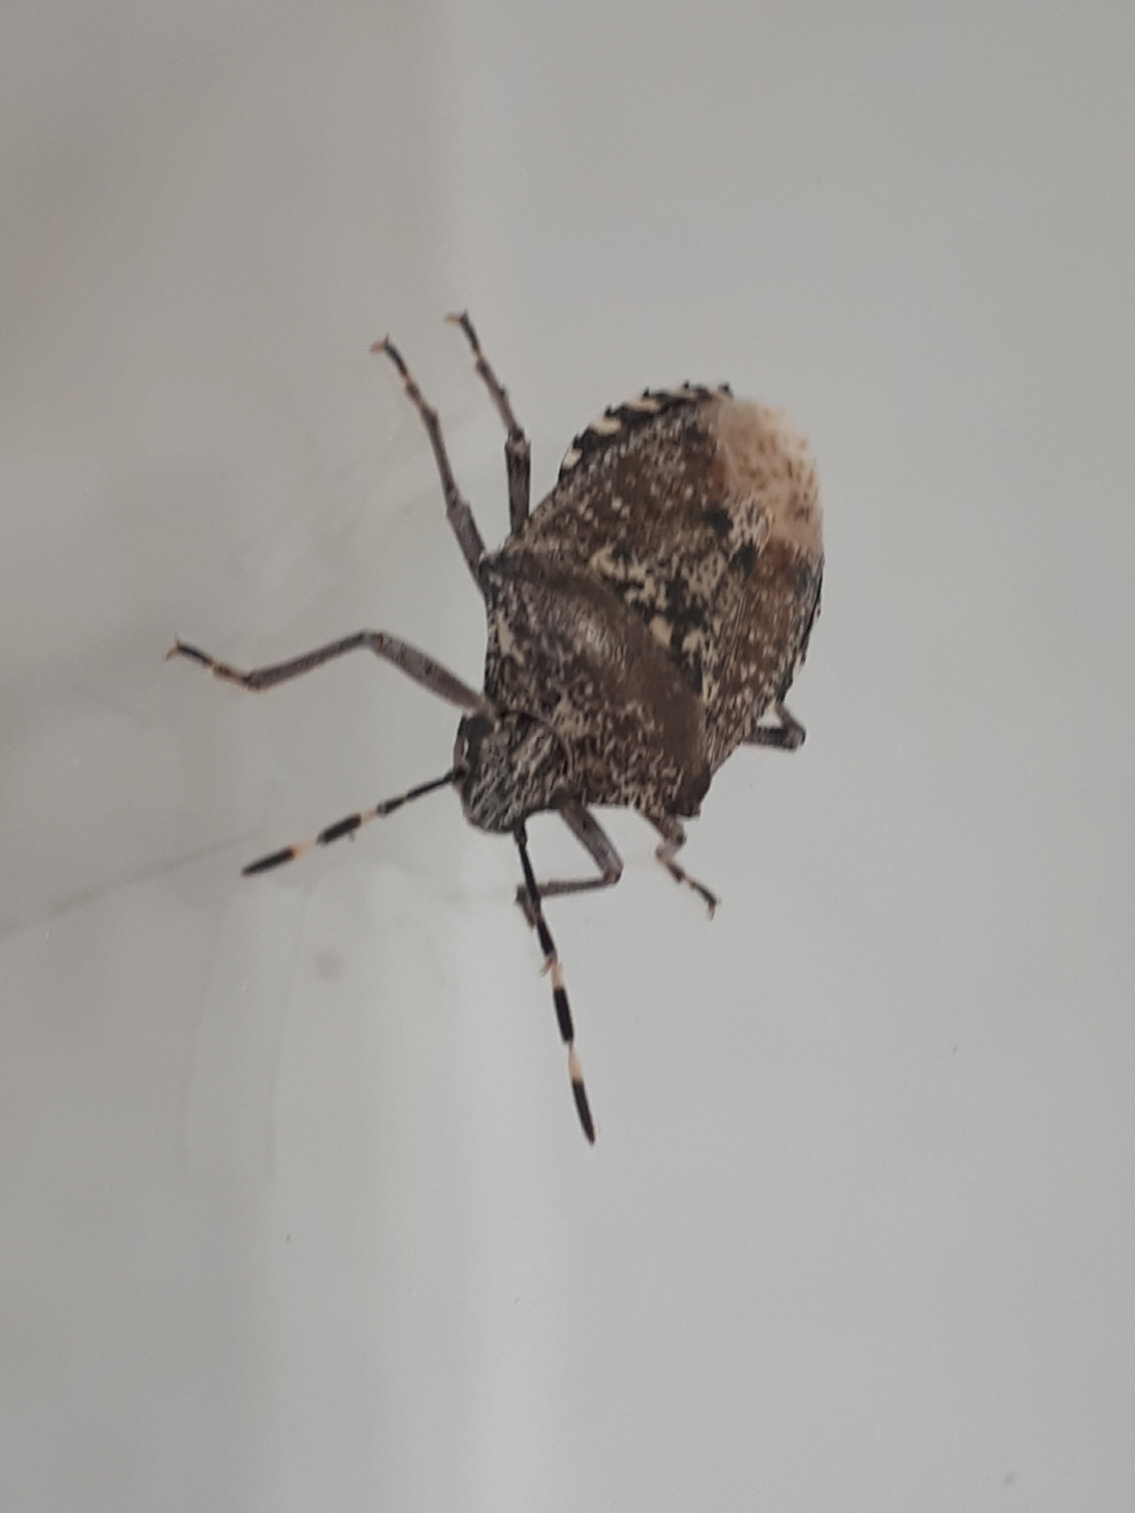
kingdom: Animalia
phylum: Arthropoda
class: Insecta
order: Hemiptera
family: Pentatomidae
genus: Rhaphigaster
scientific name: Rhaphigaster nebulosa
